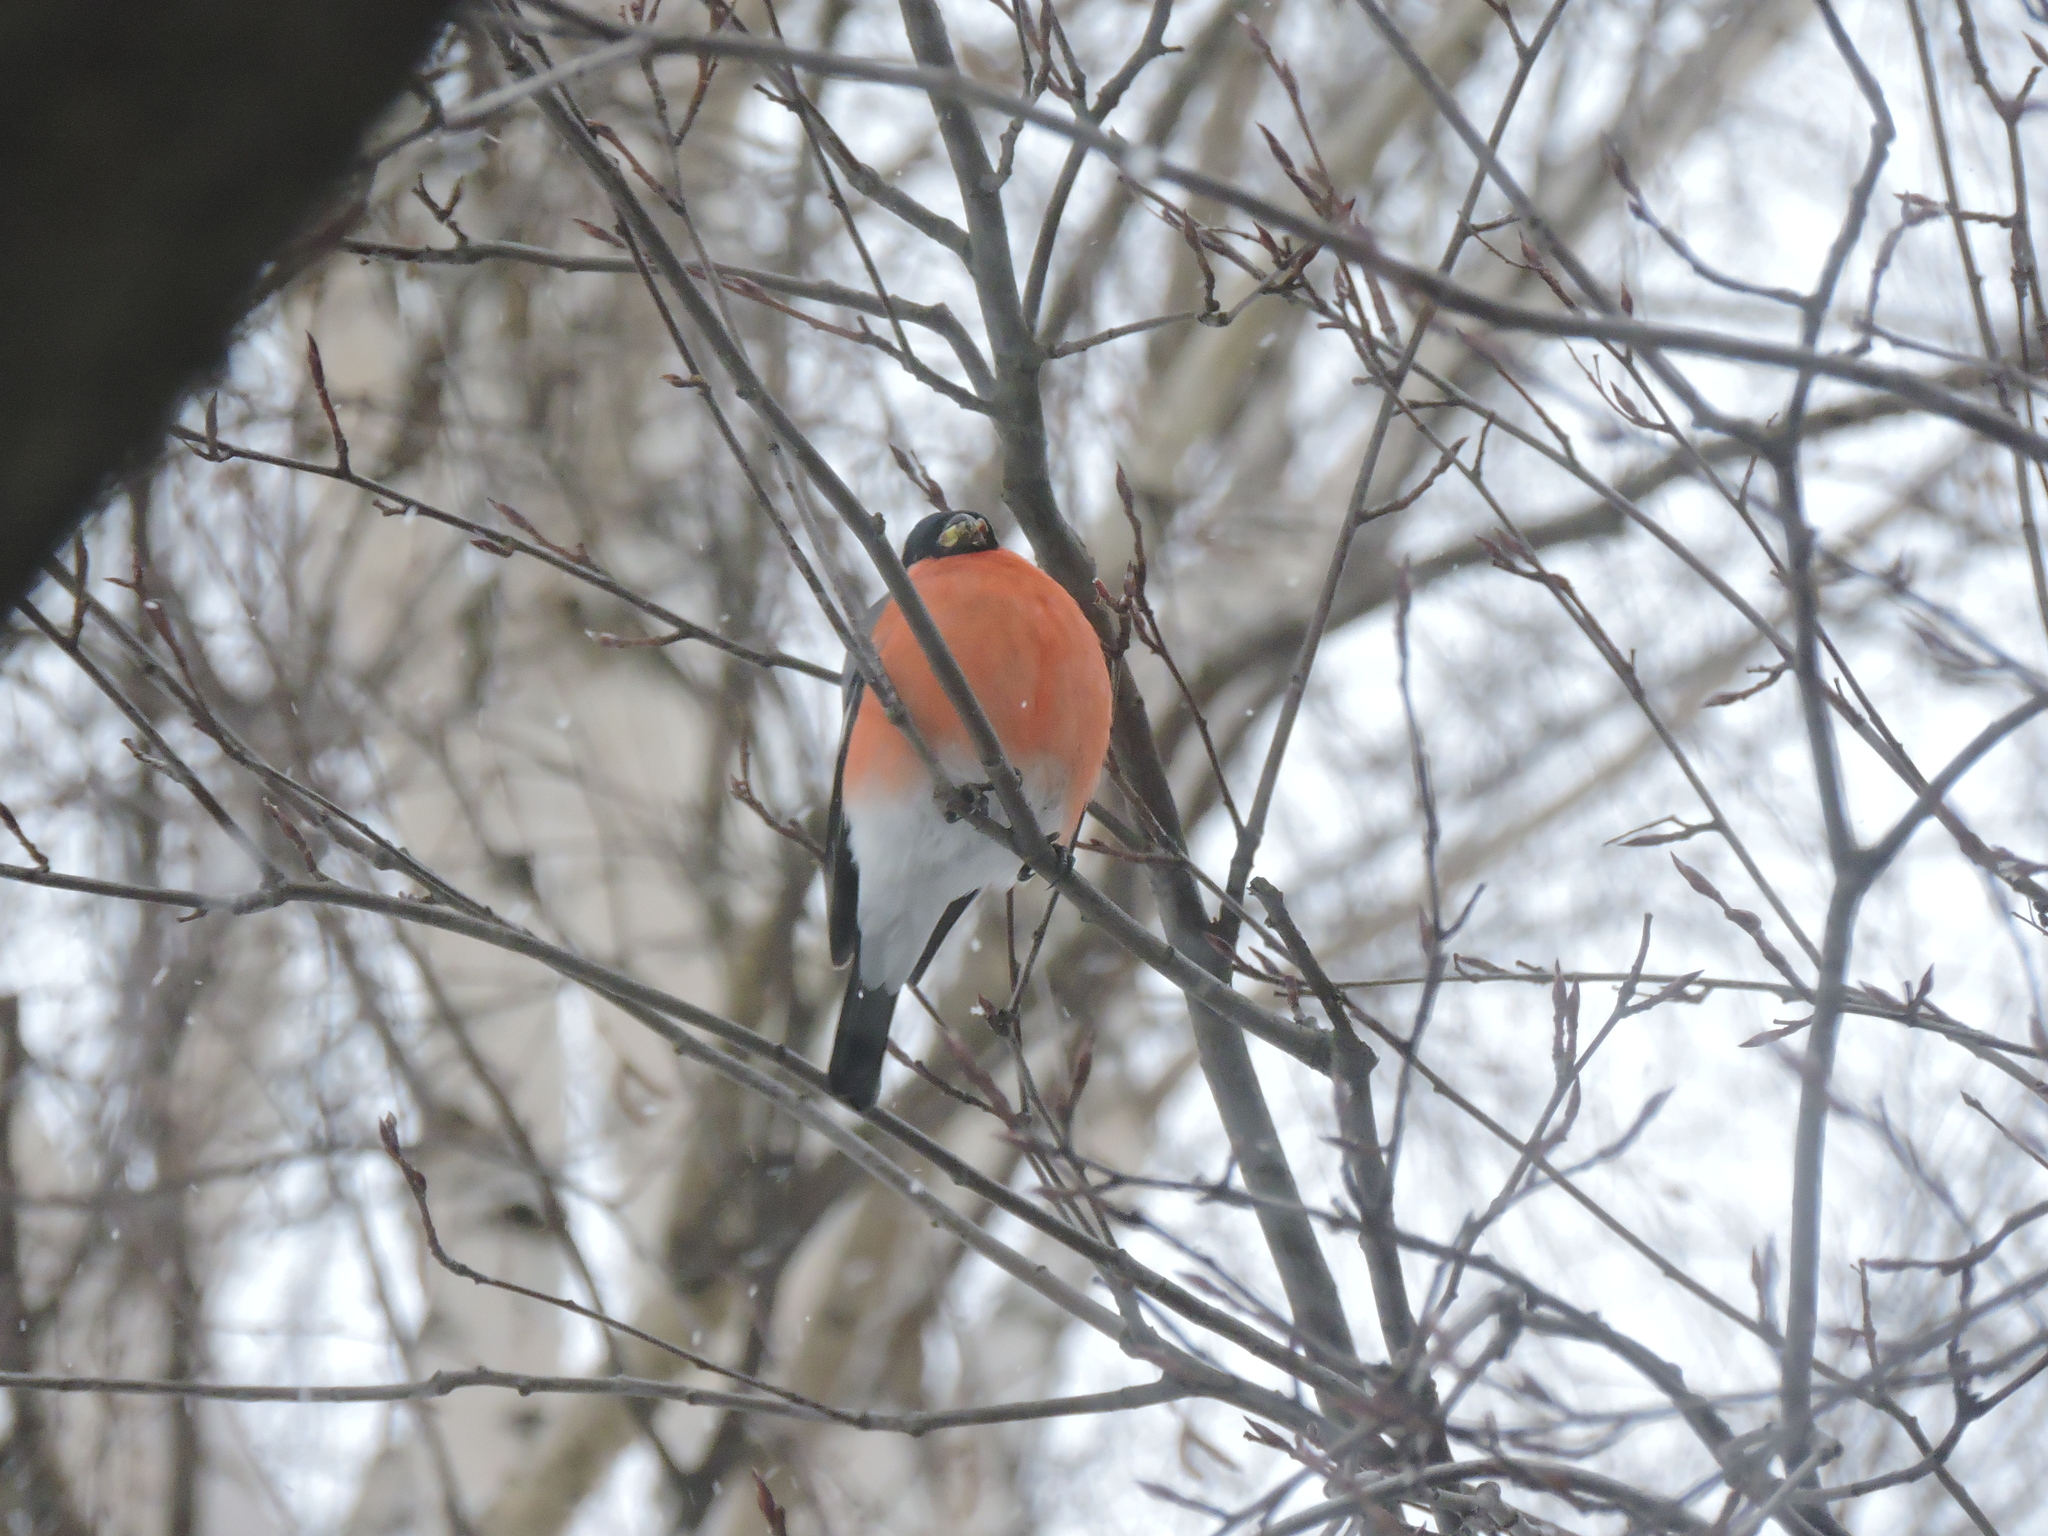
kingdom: Animalia
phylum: Chordata
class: Aves
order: Passeriformes
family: Fringillidae
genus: Pyrrhula
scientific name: Pyrrhula pyrrhula
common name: Eurasian bullfinch
